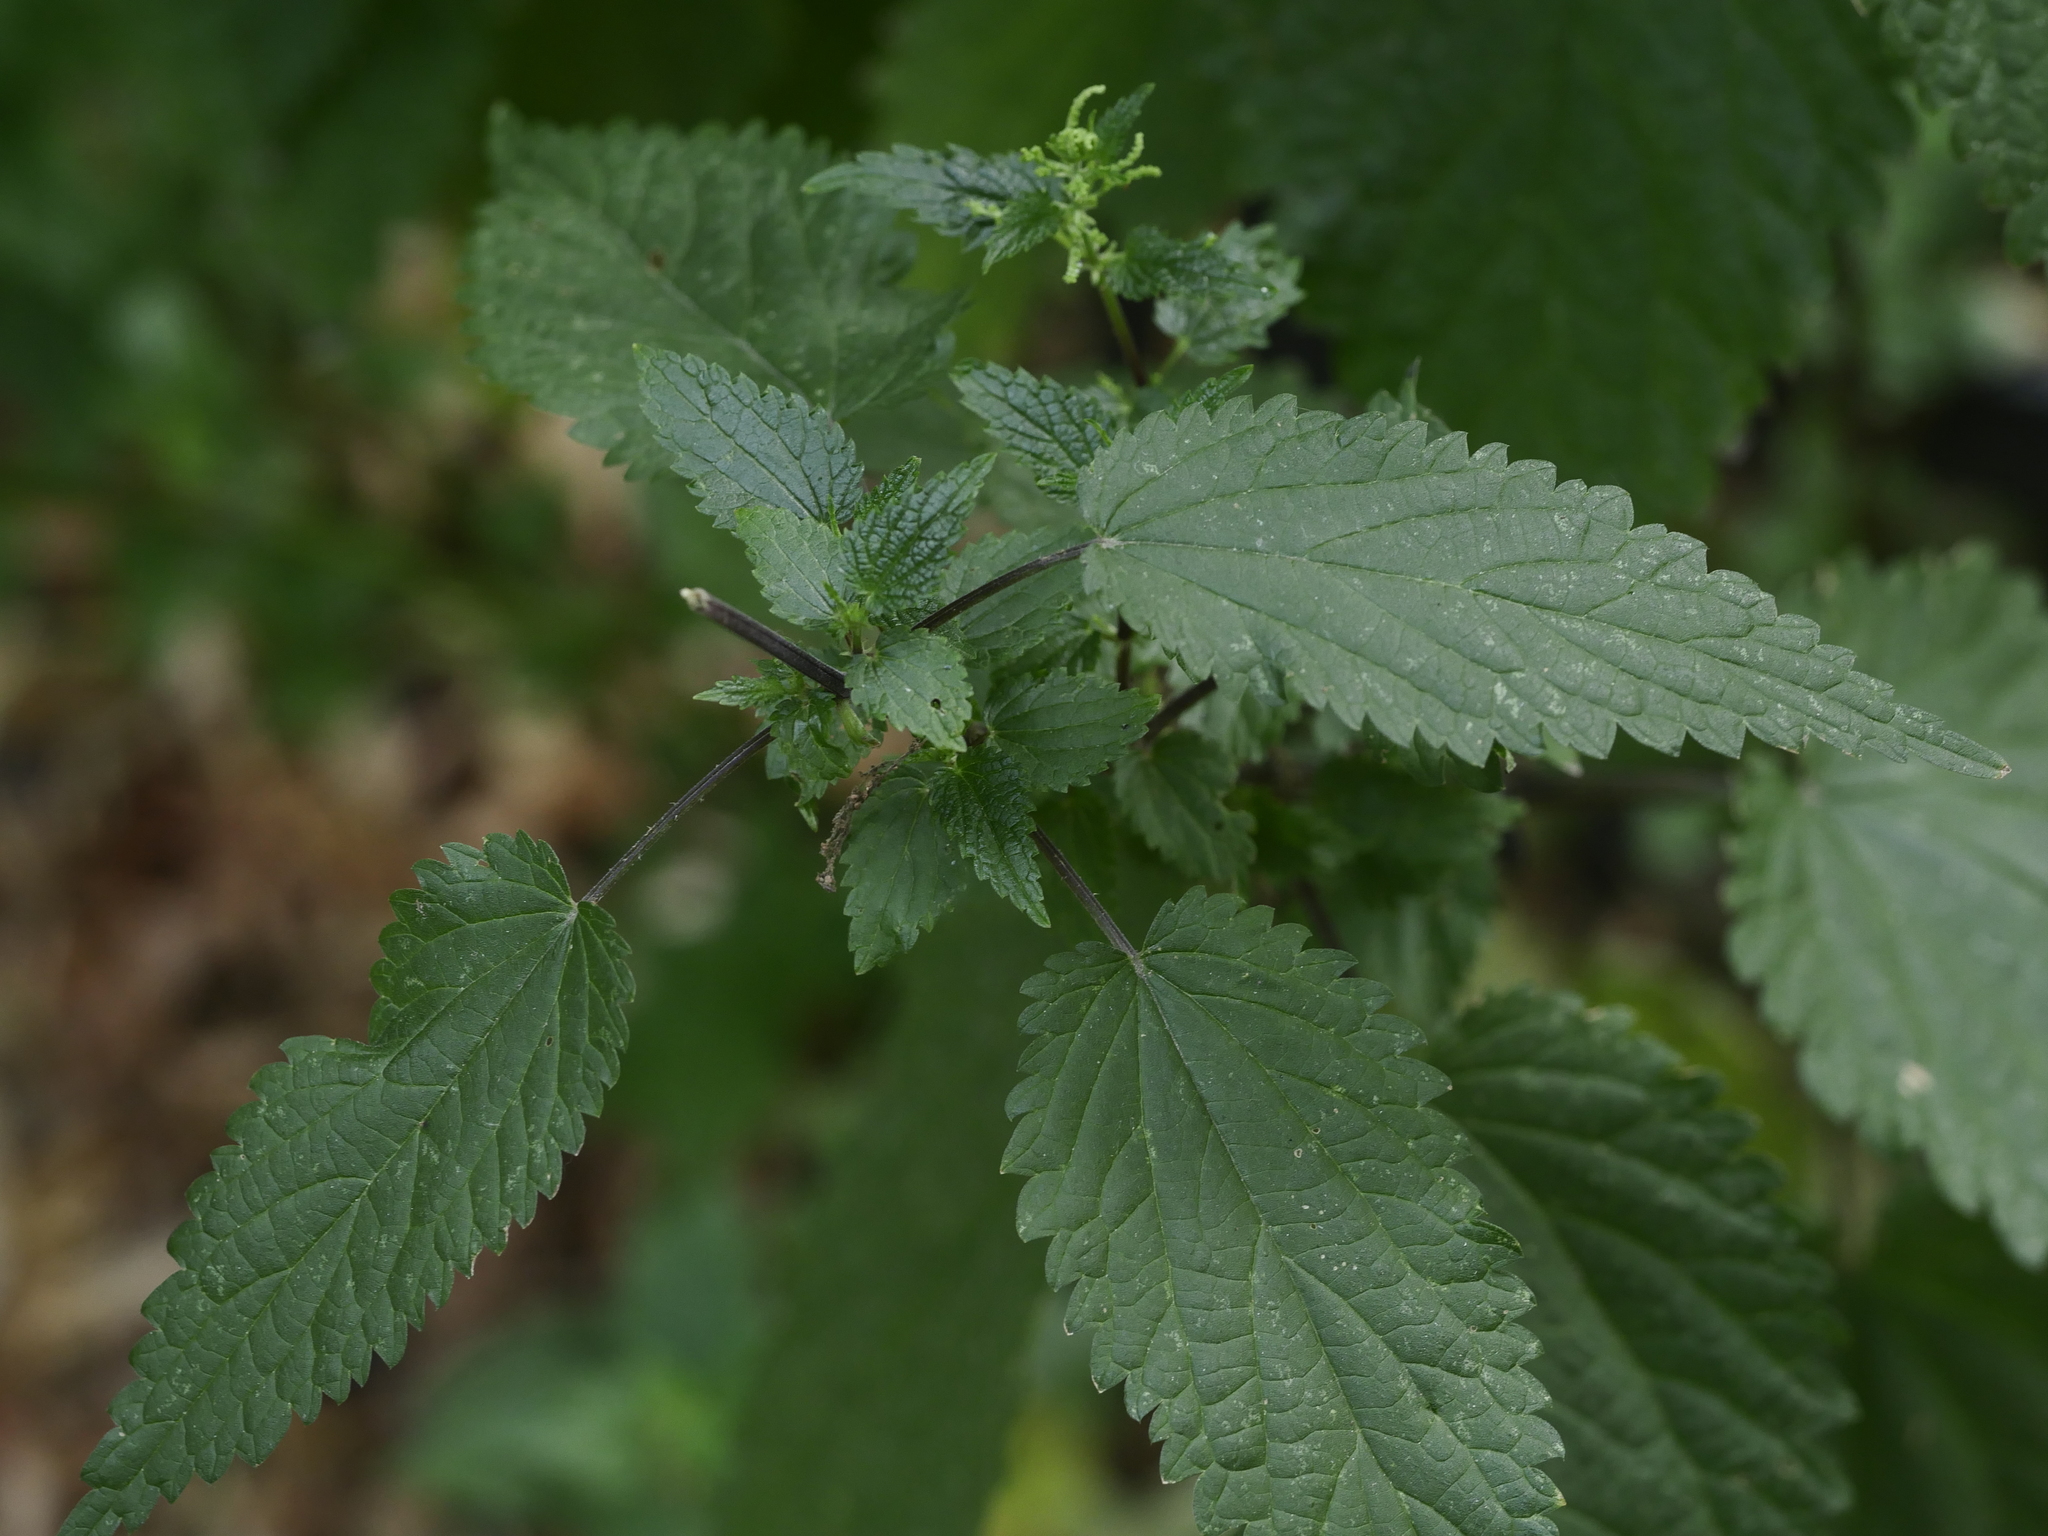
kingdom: Plantae
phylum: Tracheophyta
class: Magnoliopsida
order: Rosales
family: Urticaceae
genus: Urtica
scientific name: Urtica dioica
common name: Common nettle
